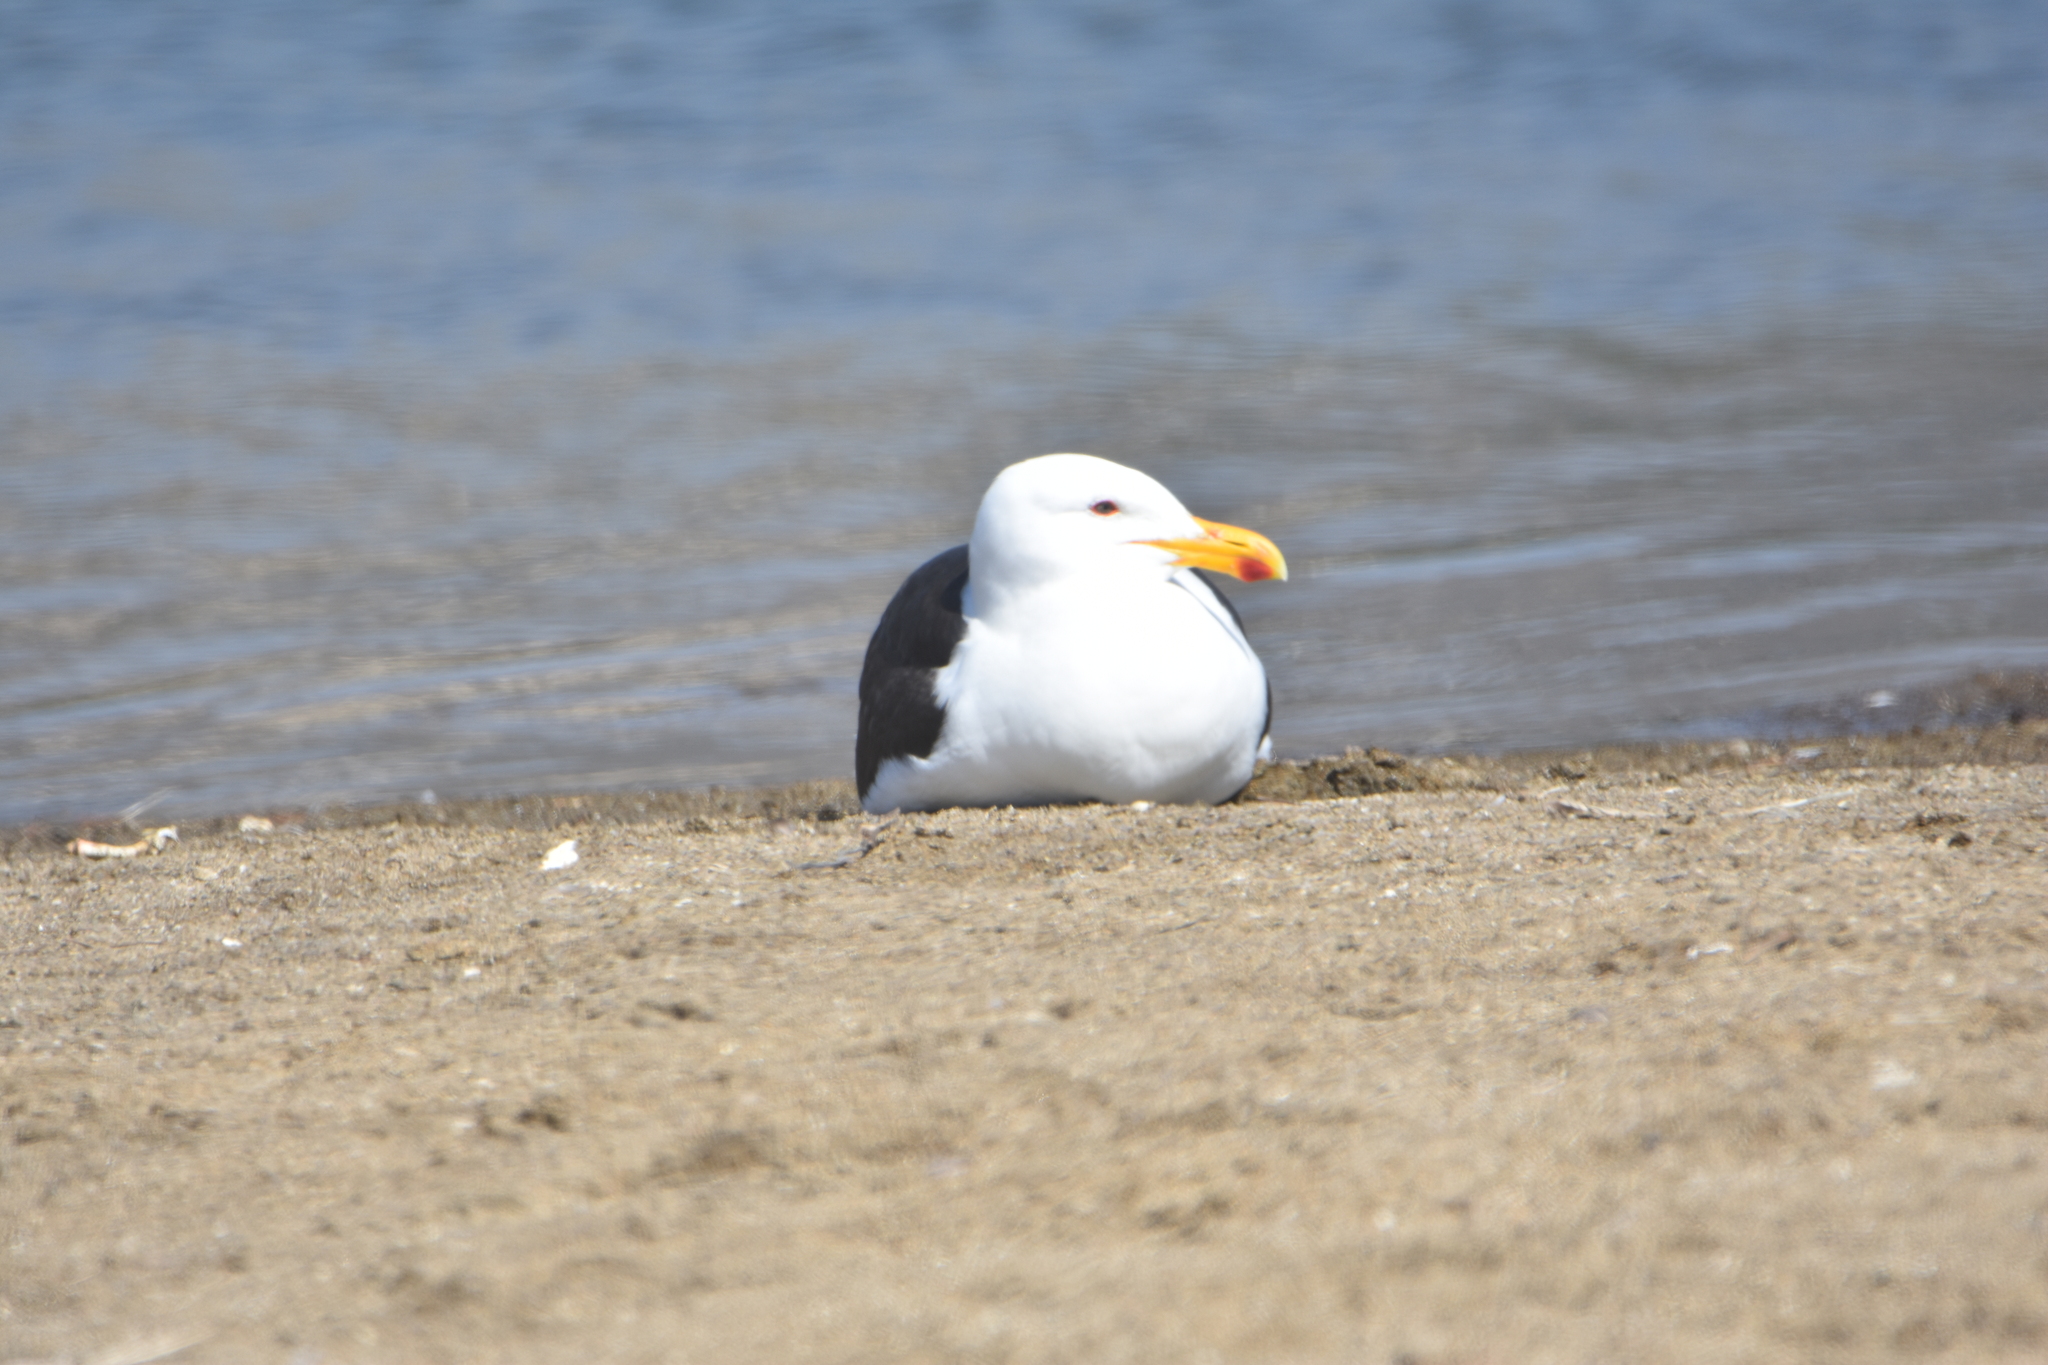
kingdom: Animalia
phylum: Chordata
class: Aves
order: Charadriiformes
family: Laridae
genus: Larus
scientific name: Larus dominicanus
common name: Kelp gull
